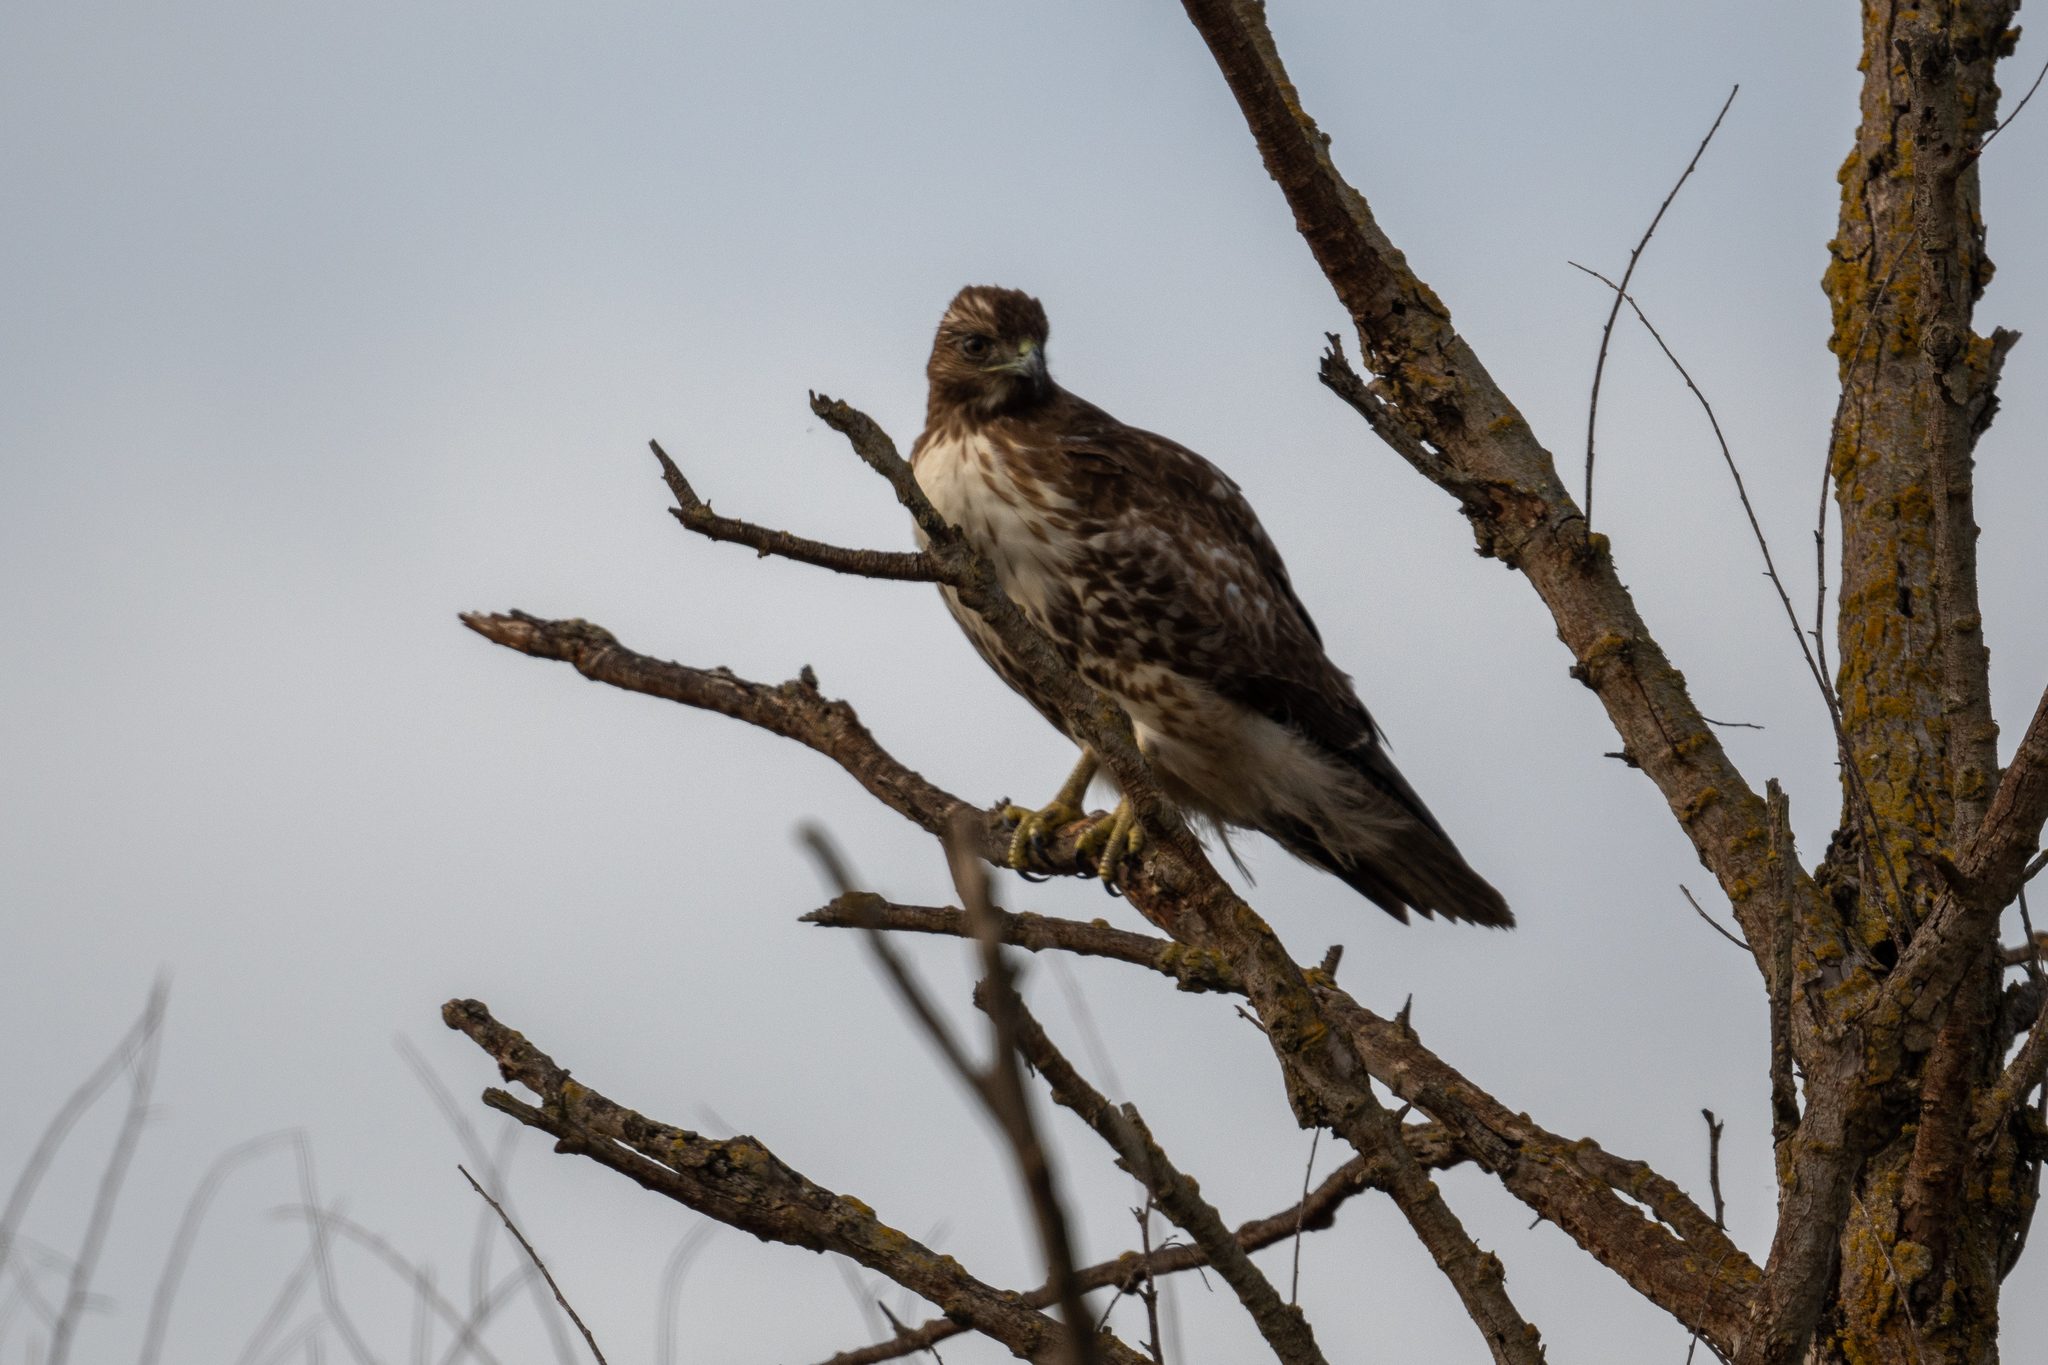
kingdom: Animalia
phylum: Chordata
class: Aves
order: Accipitriformes
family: Accipitridae
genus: Buteo
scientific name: Buteo jamaicensis
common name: Red-tailed hawk
